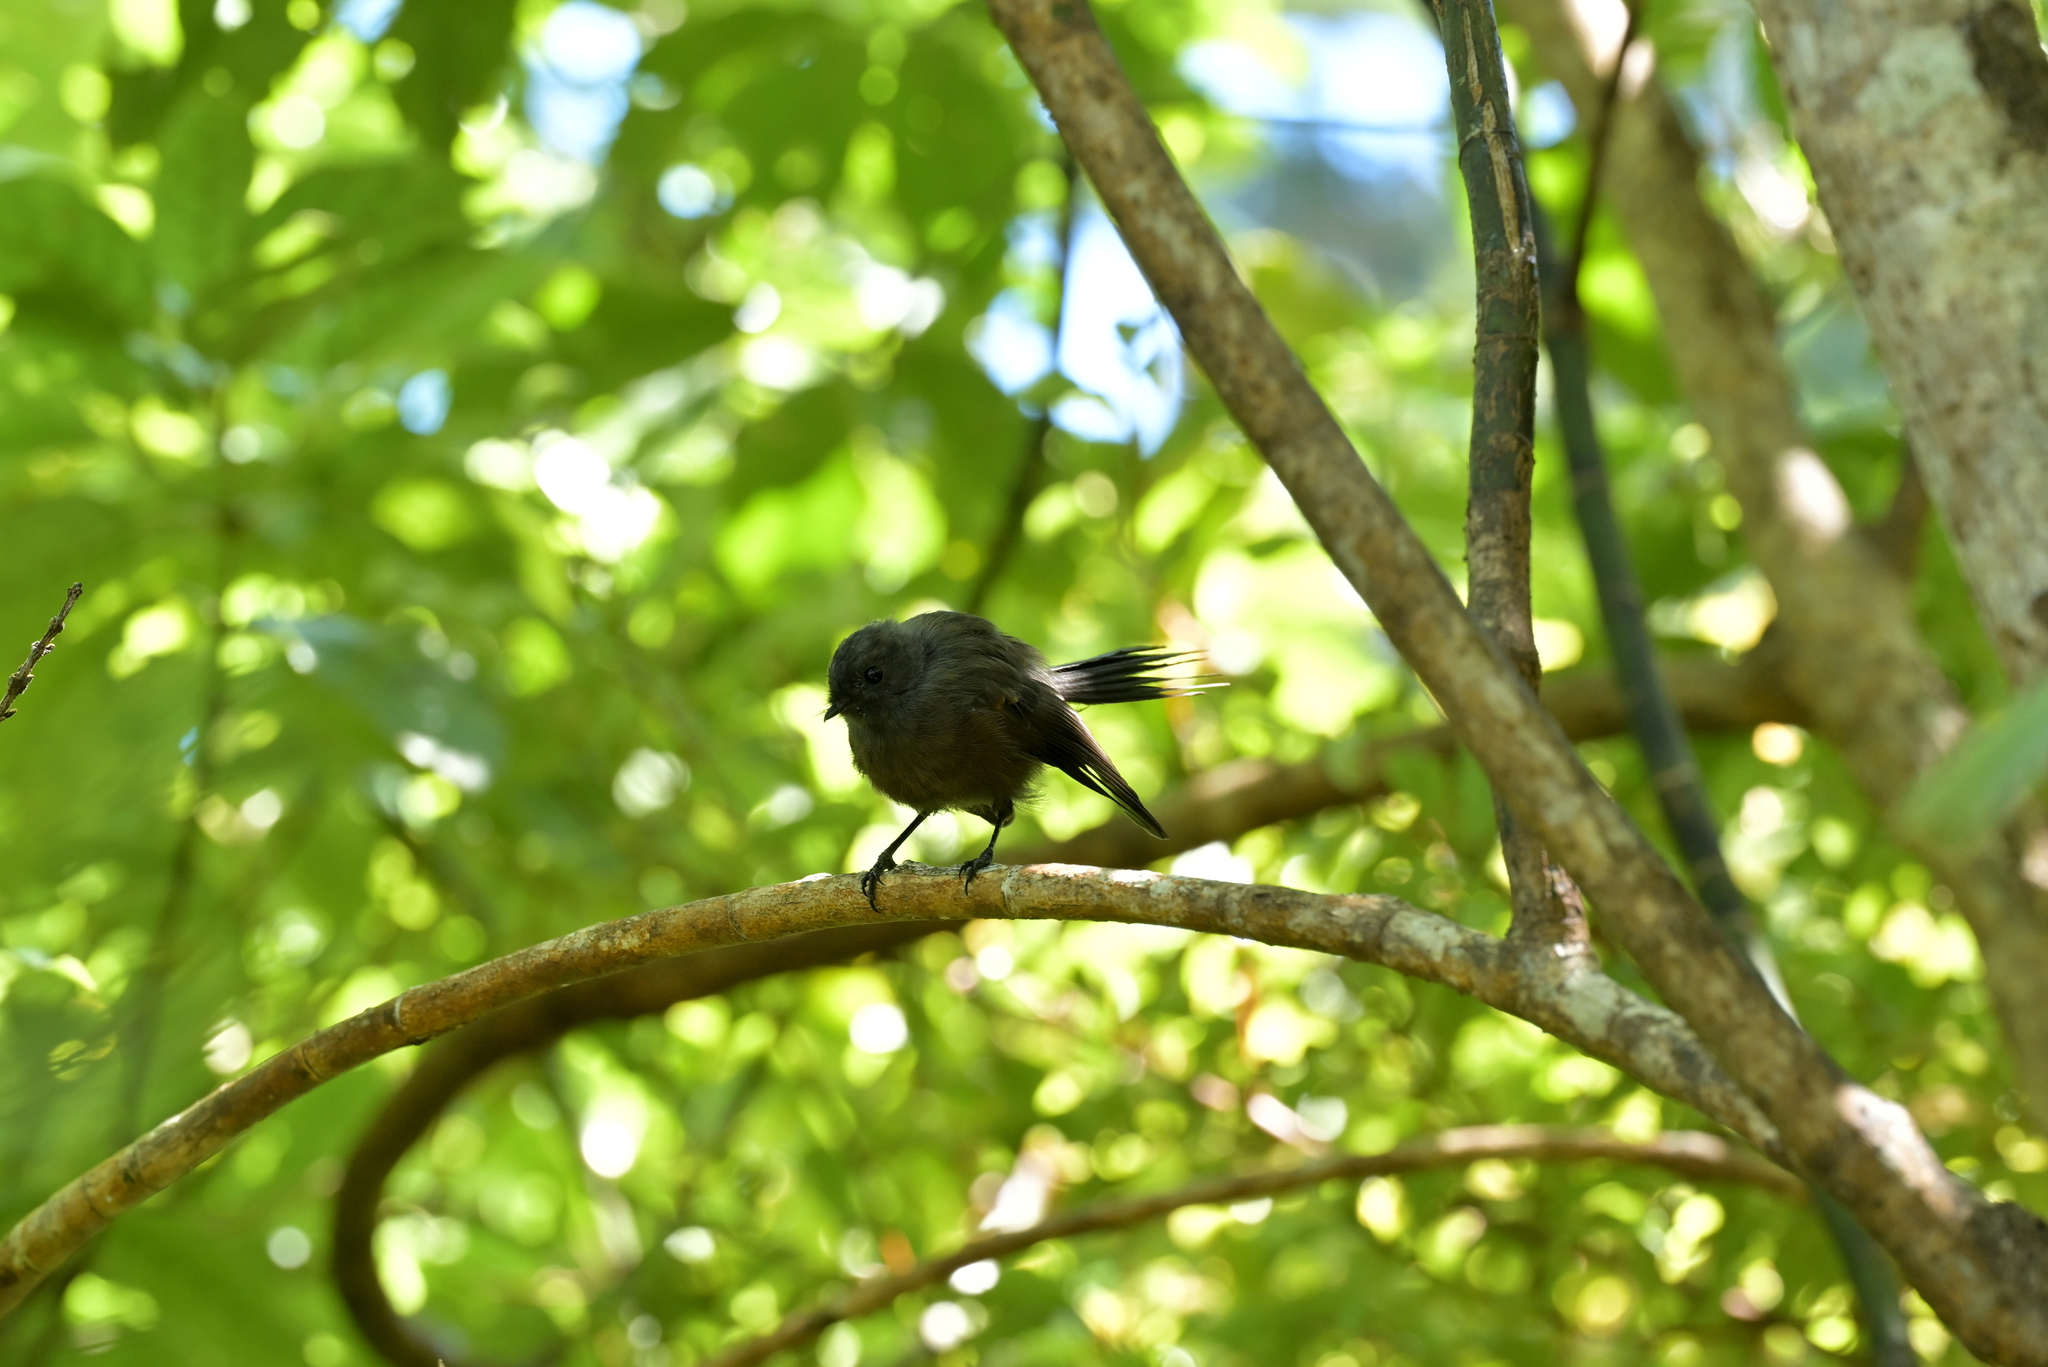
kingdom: Animalia
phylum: Chordata
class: Aves
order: Passeriformes
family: Rhipiduridae
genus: Rhipidura
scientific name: Rhipidura fuliginosa
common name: New zealand fantail
